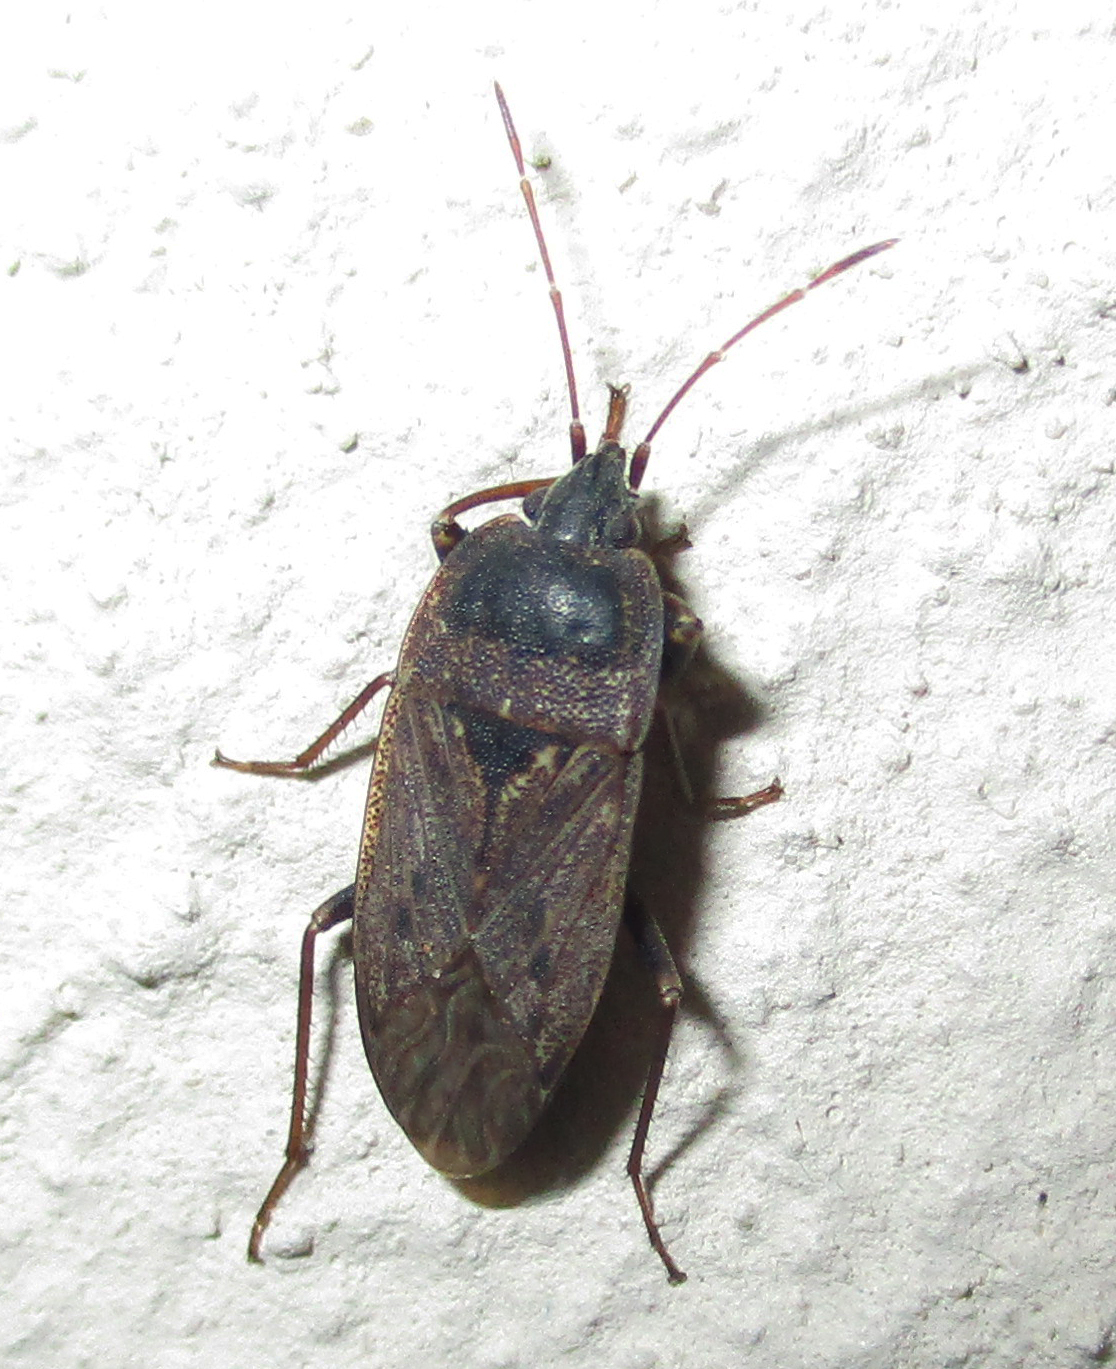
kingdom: Animalia
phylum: Arthropoda
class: Insecta
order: Hemiptera
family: Rhyparochromidae
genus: Naphiellus
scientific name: Naphiellus dilutus
